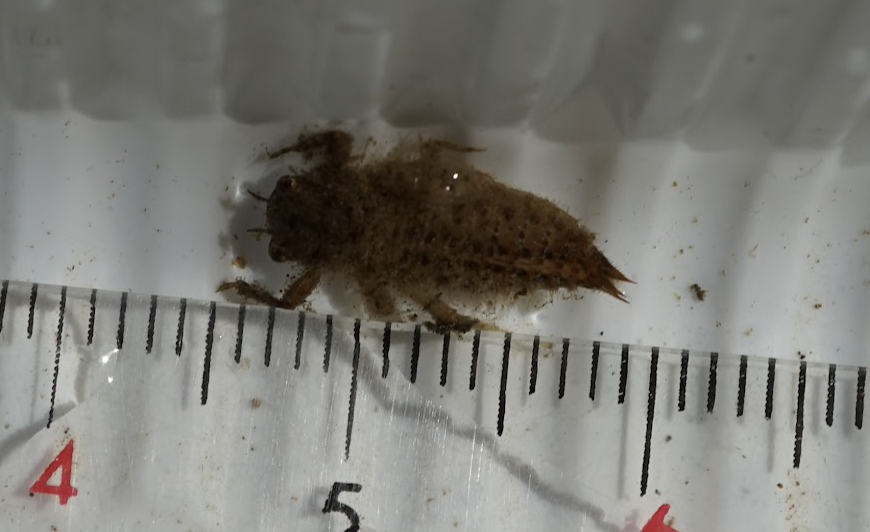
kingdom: Animalia
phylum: Arthropoda
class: Insecta
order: Odonata
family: Cordulegastridae
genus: Anotogaster
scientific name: Anotogaster sieboldii
